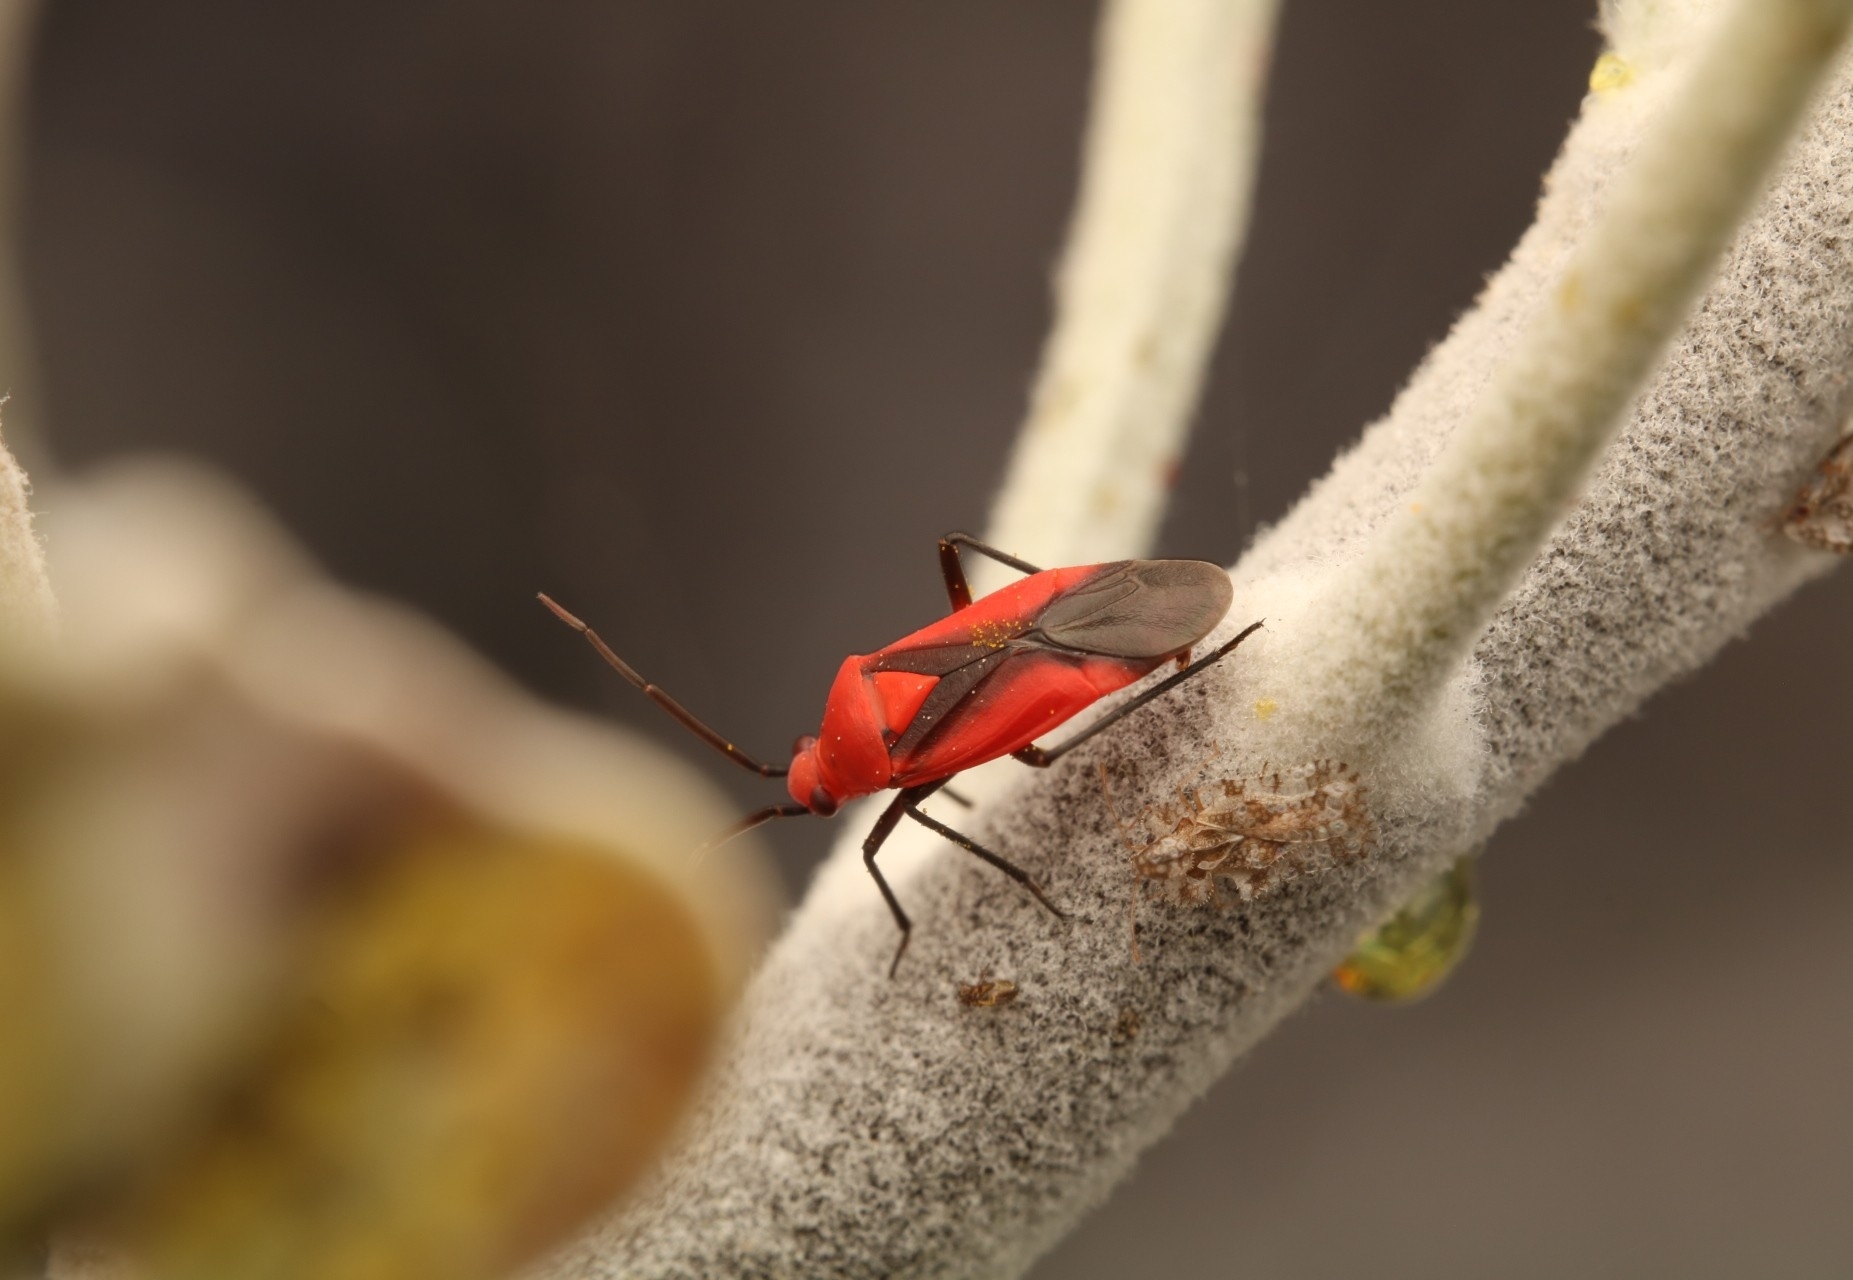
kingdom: Animalia
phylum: Arthropoda
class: Insecta
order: Hemiptera
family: Miridae
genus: Oncerometopus
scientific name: Oncerometopus nigriclavus
